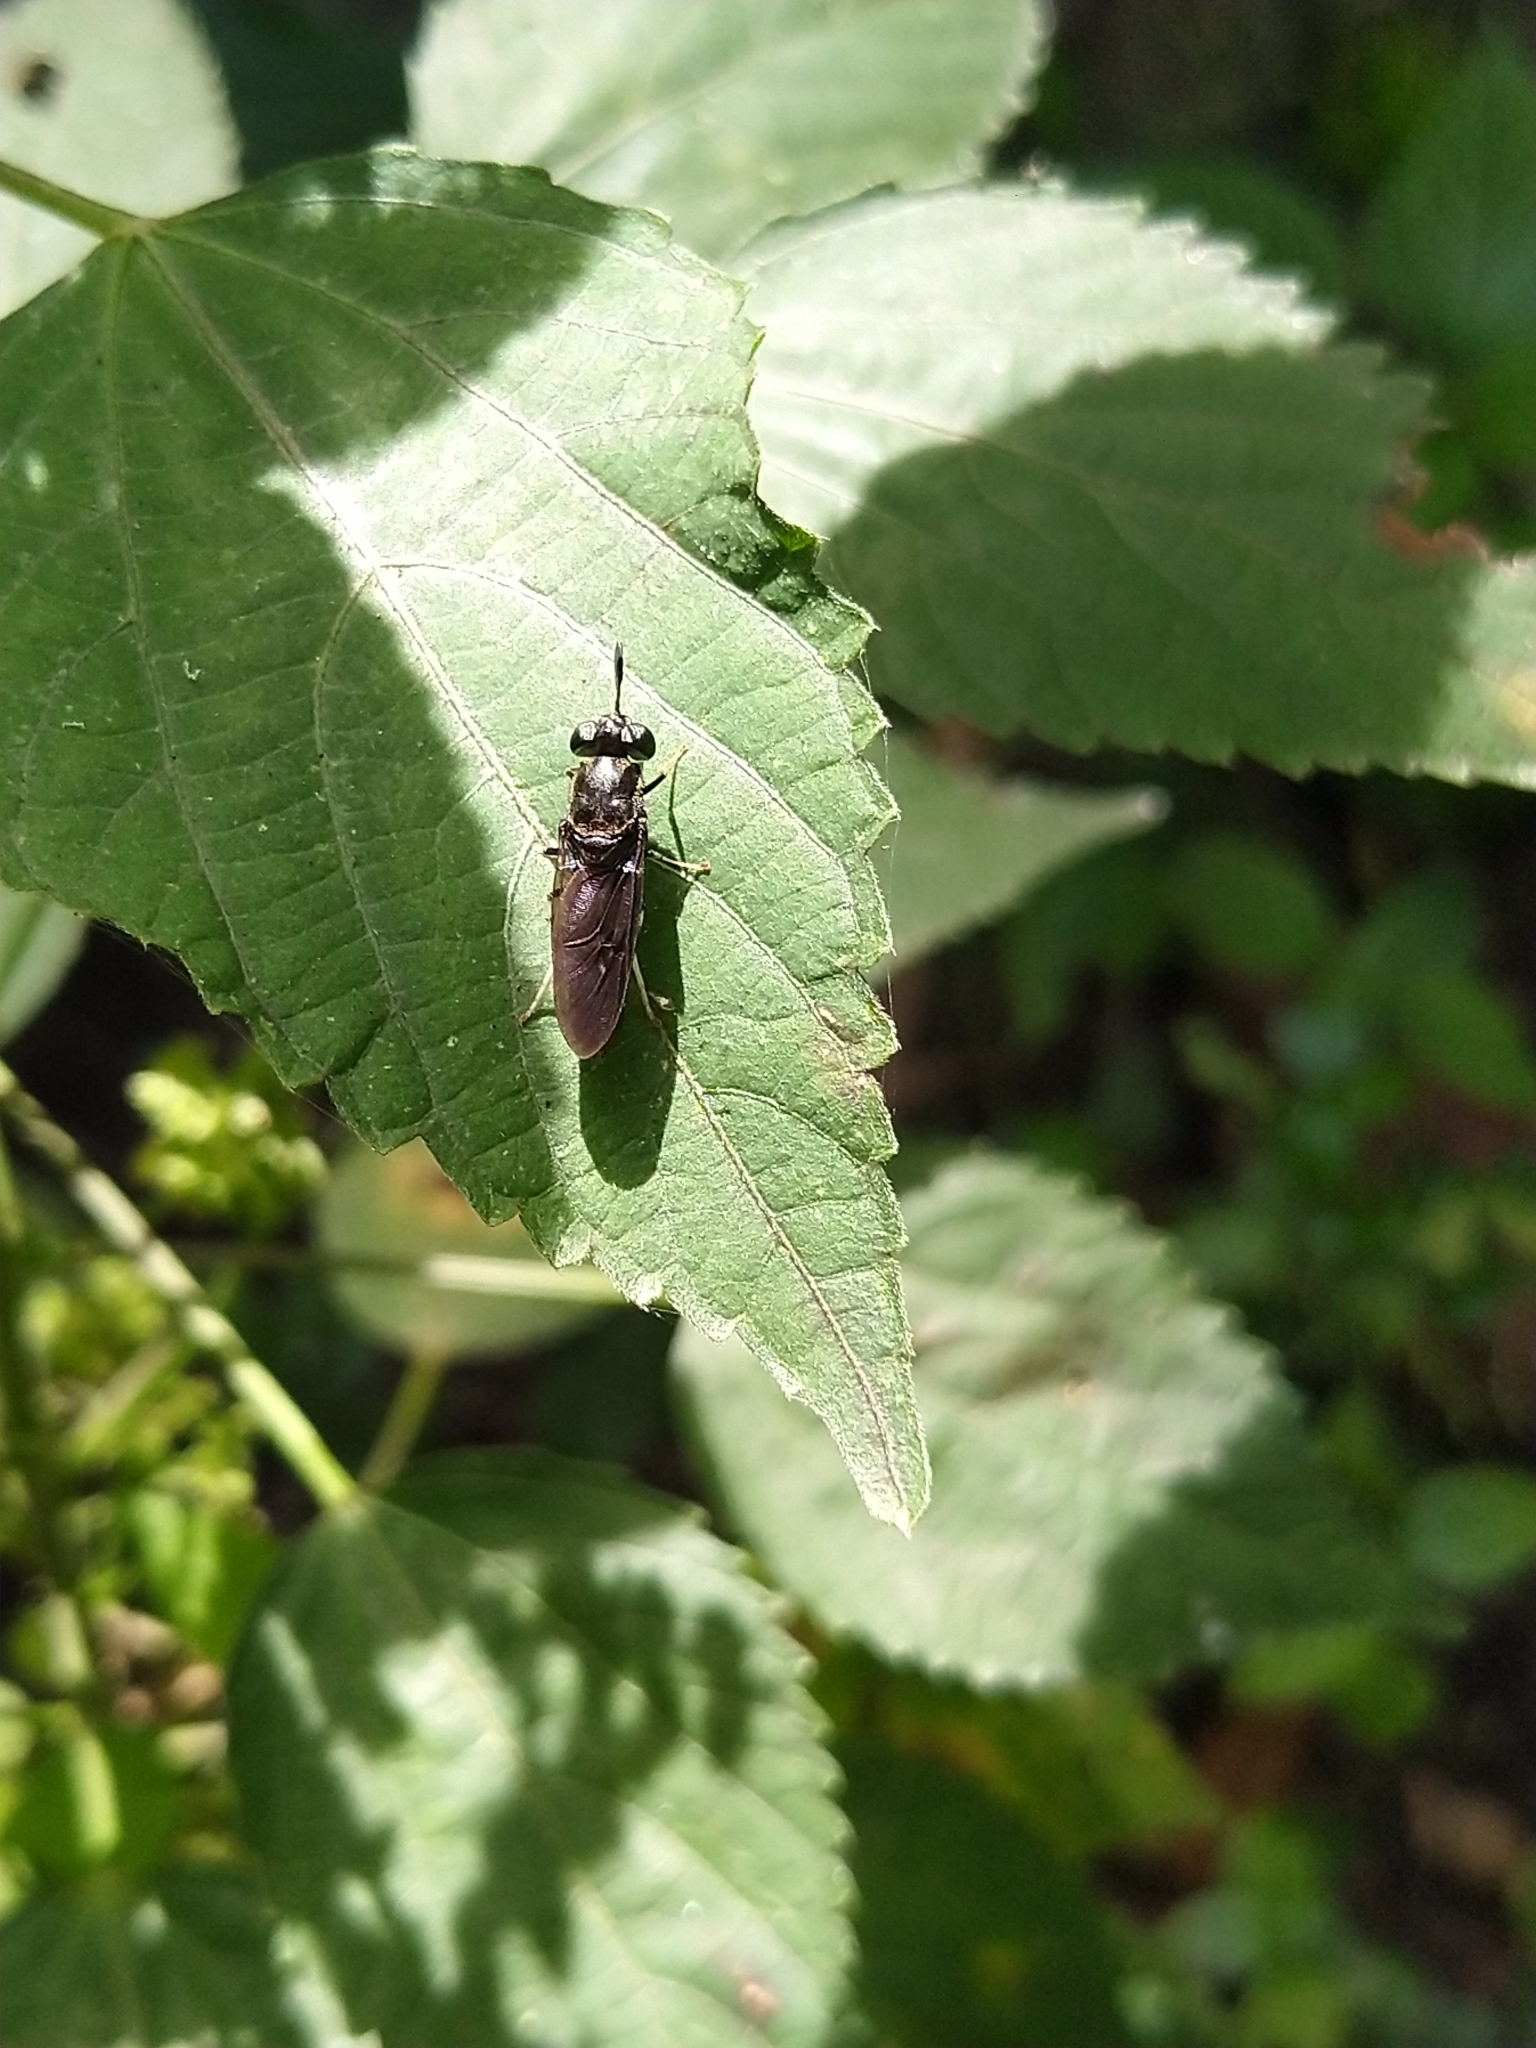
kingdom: Animalia
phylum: Arthropoda
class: Insecta
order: Diptera
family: Stratiomyidae
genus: Hermetia
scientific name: Hermetia illucens
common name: Black soldier fly
